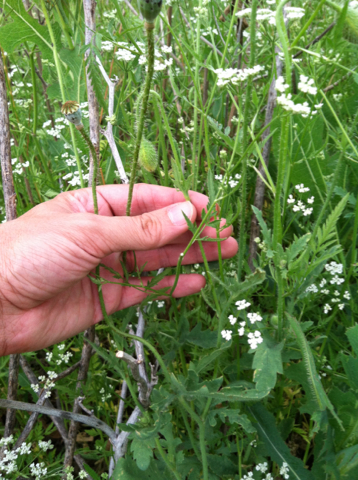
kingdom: Plantae
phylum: Tracheophyta
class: Magnoliopsida
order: Ranunculales
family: Papaveraceae
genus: Papaver
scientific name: Papaver rhoeas
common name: Corn poppy
